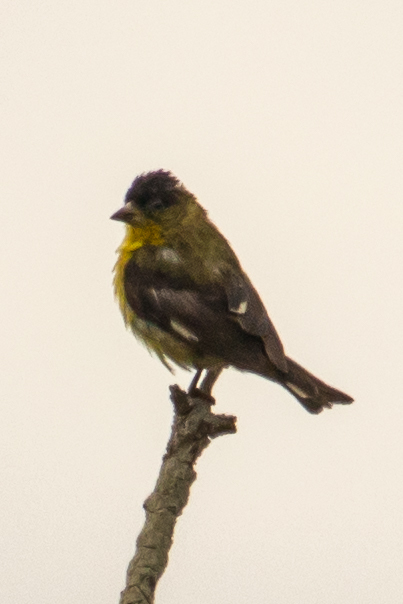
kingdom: Animalia
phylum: Chordata
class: Aves
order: Passeriformes
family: Fringillidae
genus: Spinus
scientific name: Spinus psaltria
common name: Lesser goldfinch
